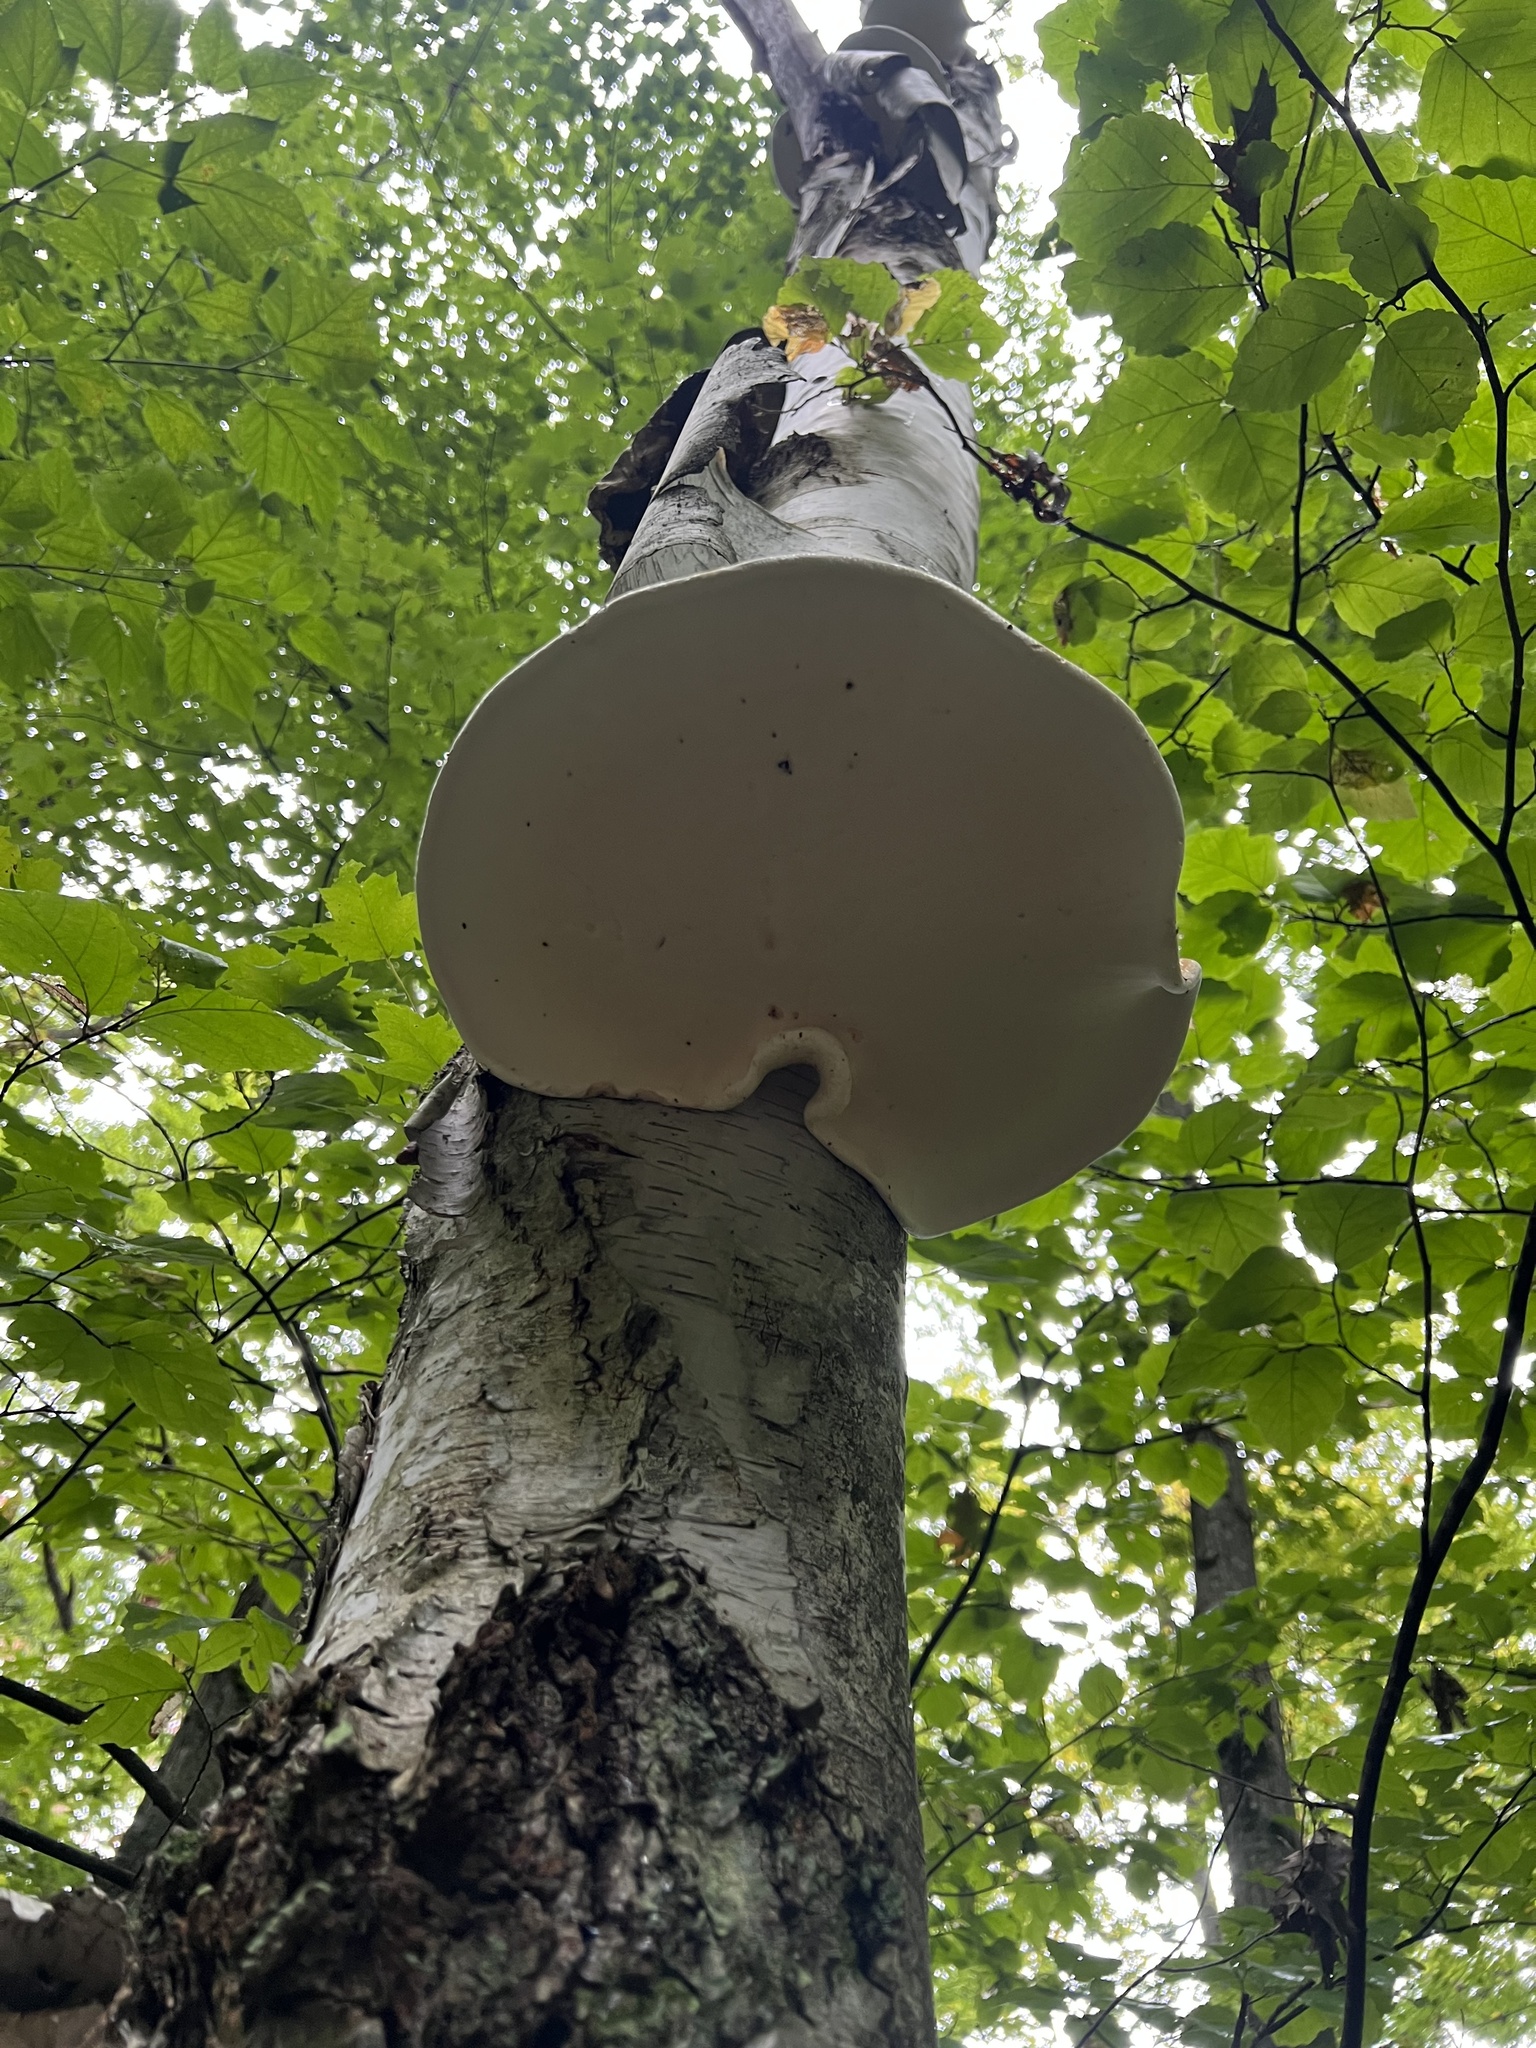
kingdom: Fungi
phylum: Basidiomycota
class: Agaricomycetes
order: Polyporales
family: Fomitopsidaceae
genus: Fomitopsis
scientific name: Fomitopsis betulina
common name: Birch polypore
